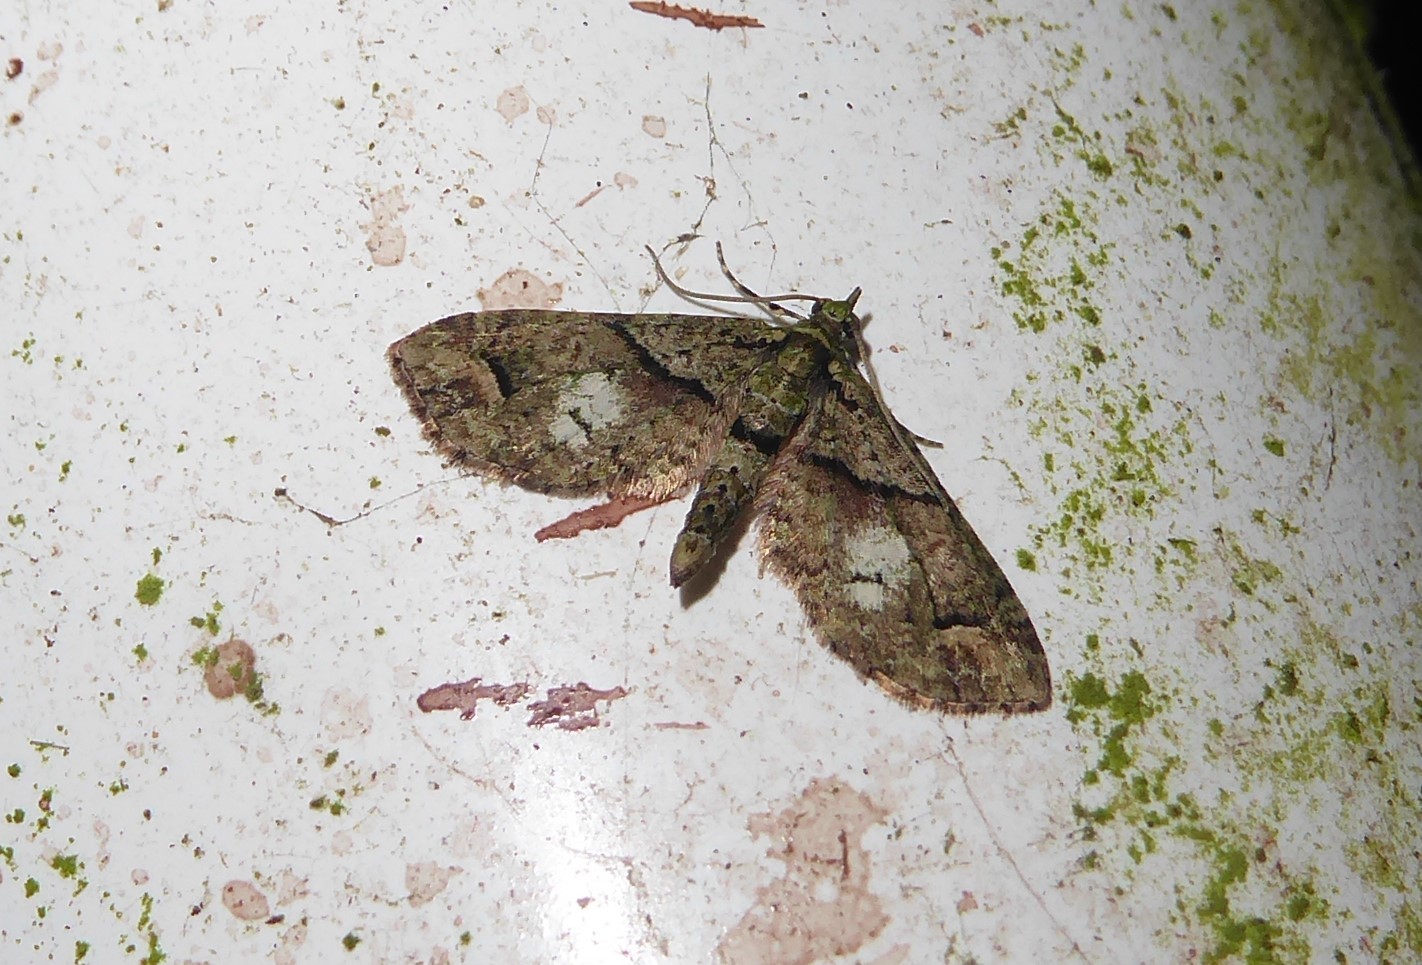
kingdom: Animalia
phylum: Arthropoda
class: Insecta
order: Lepidoptera
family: Geometridae
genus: Idaea
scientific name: Idaea mutanda
